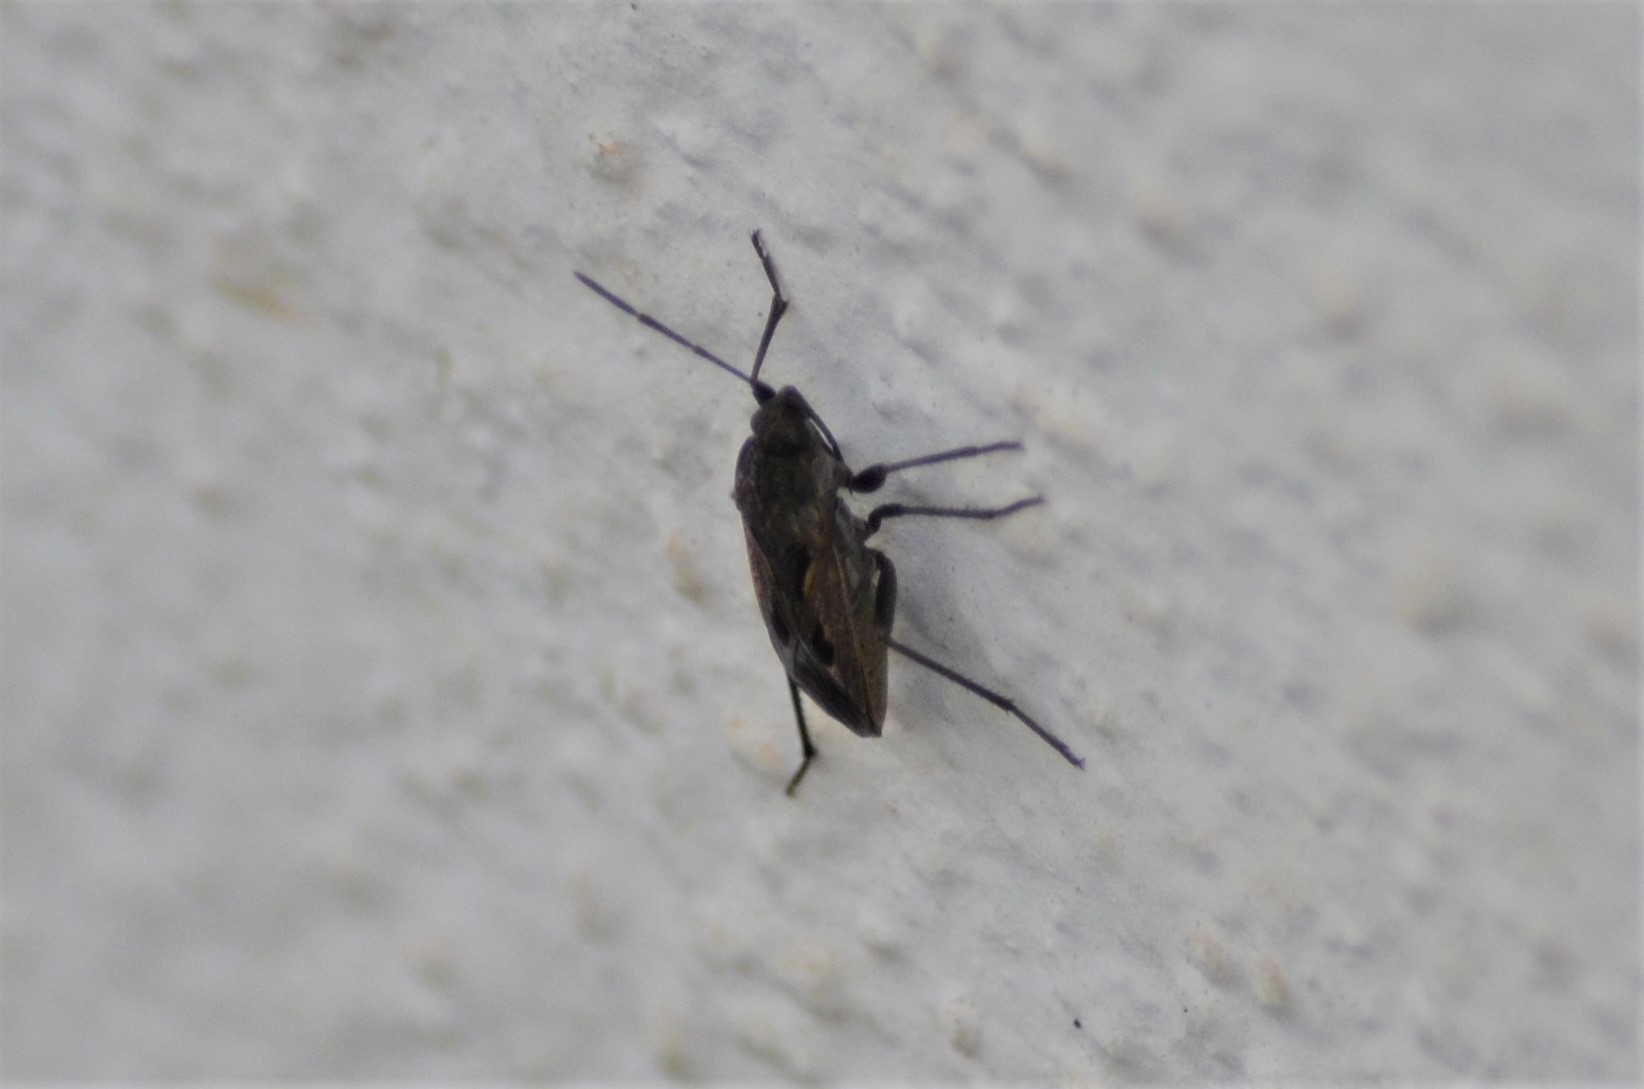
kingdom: Animalia
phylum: Arthropoda
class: Insecta
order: Hemiptera
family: Rhyparochromidae
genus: Rhyparochromus
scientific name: Rhyparochromus pini
